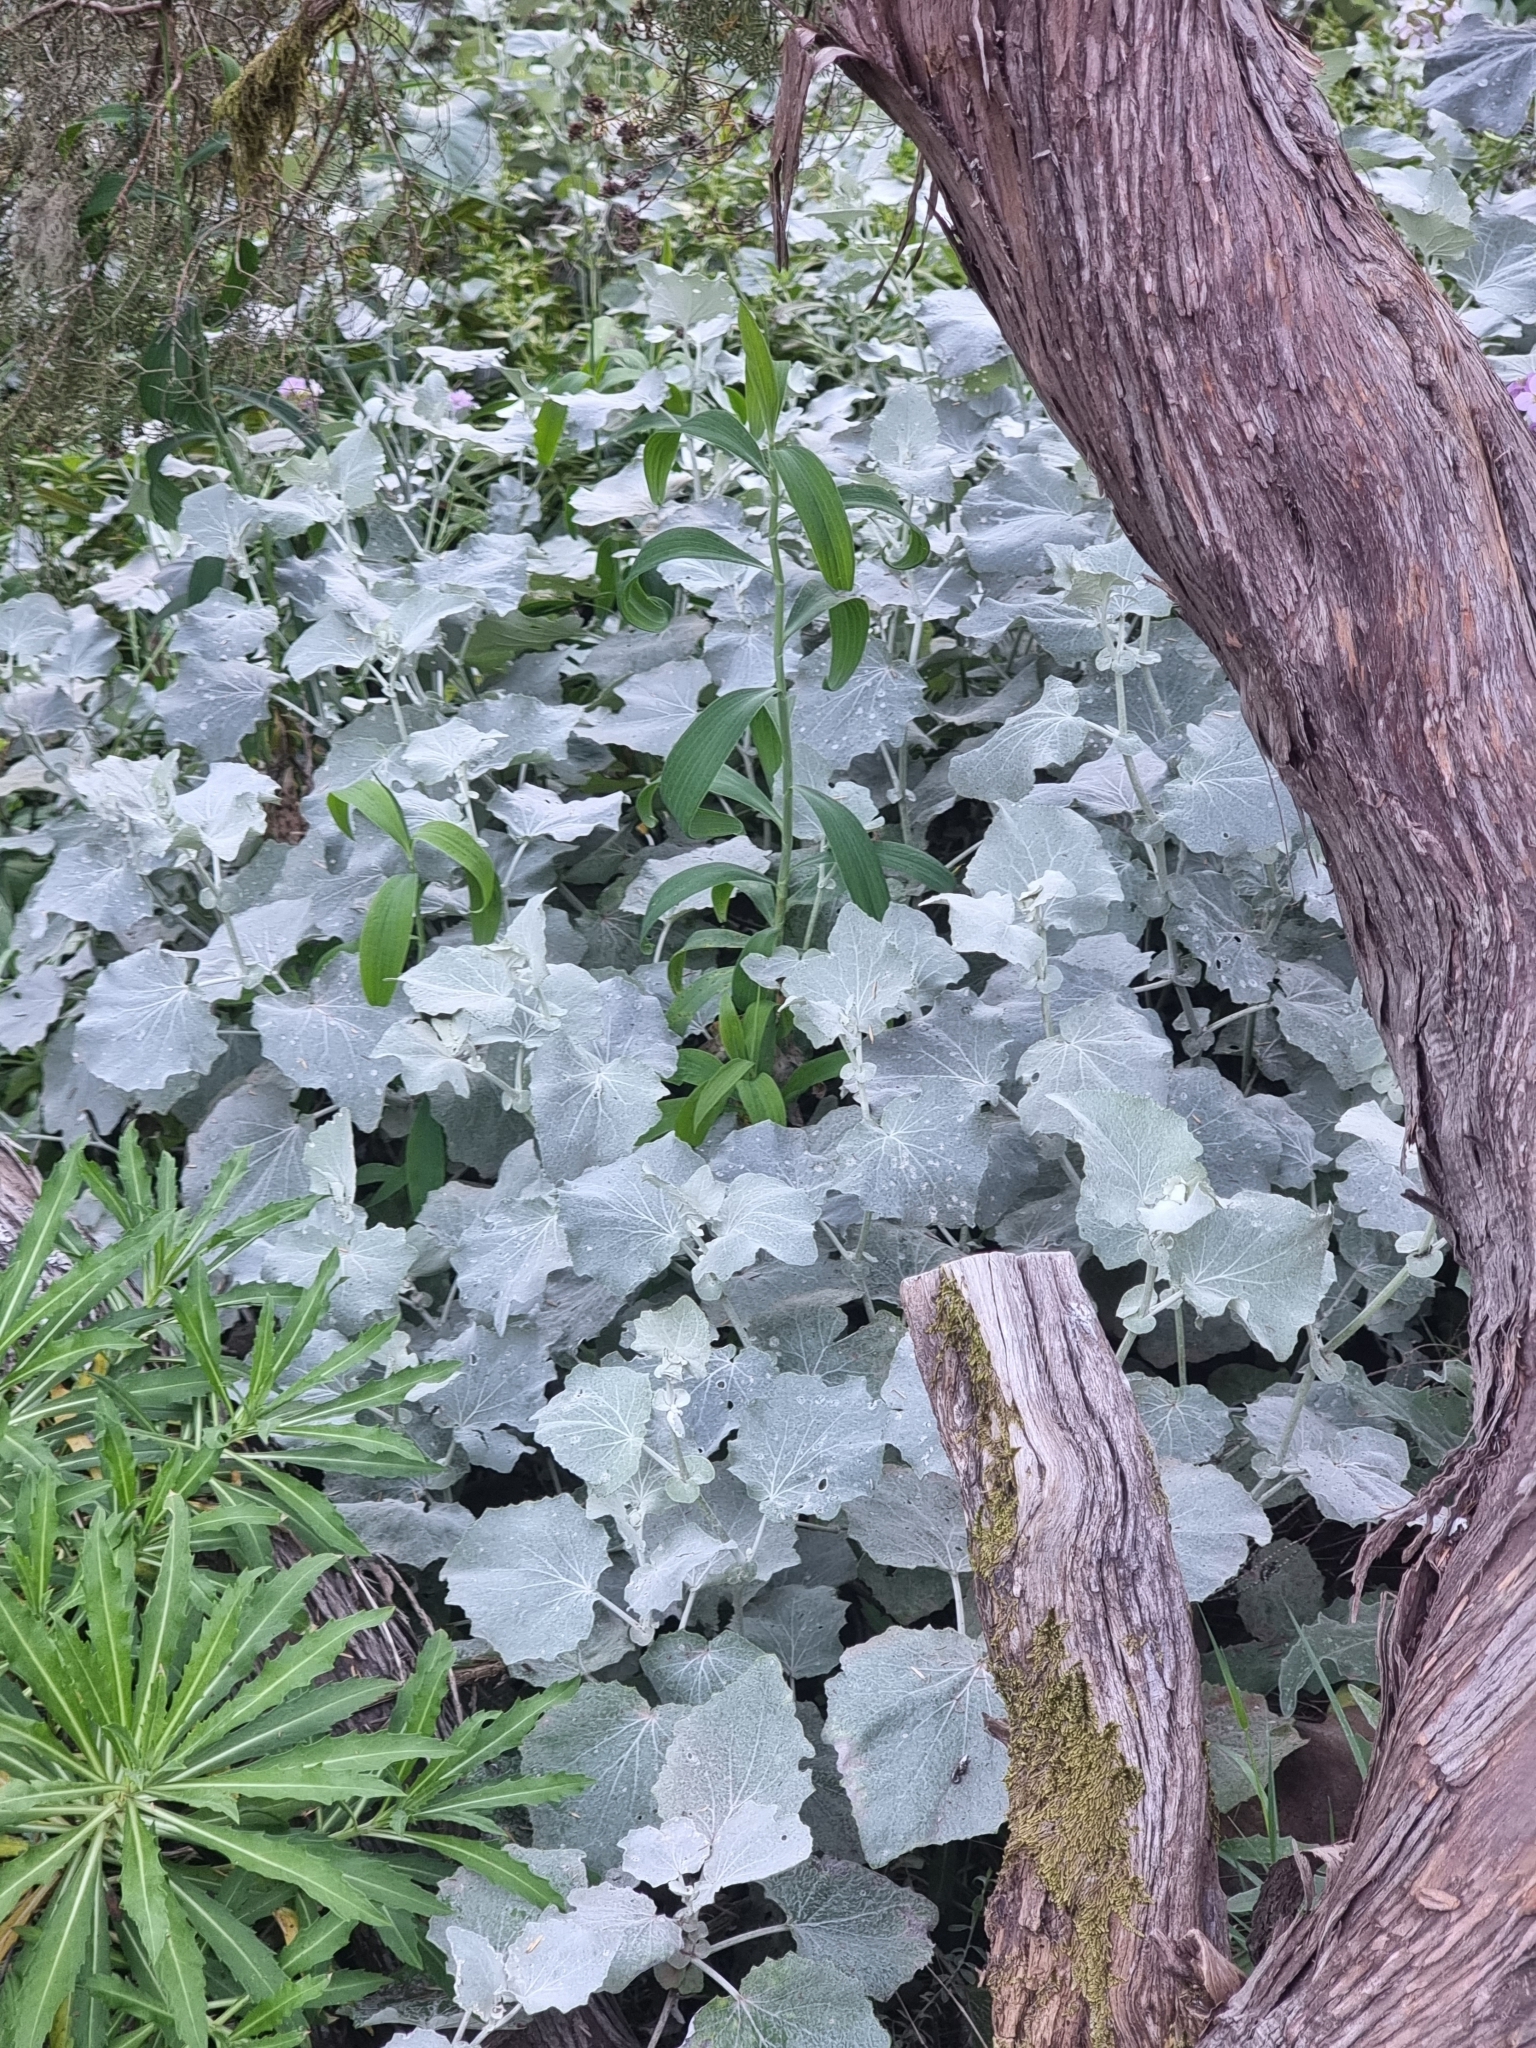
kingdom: Plantae
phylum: Tracheophyta
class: Magnoliopsida
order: Asterales
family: Asteraceae
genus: Pericallis
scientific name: Pericallis aurita
